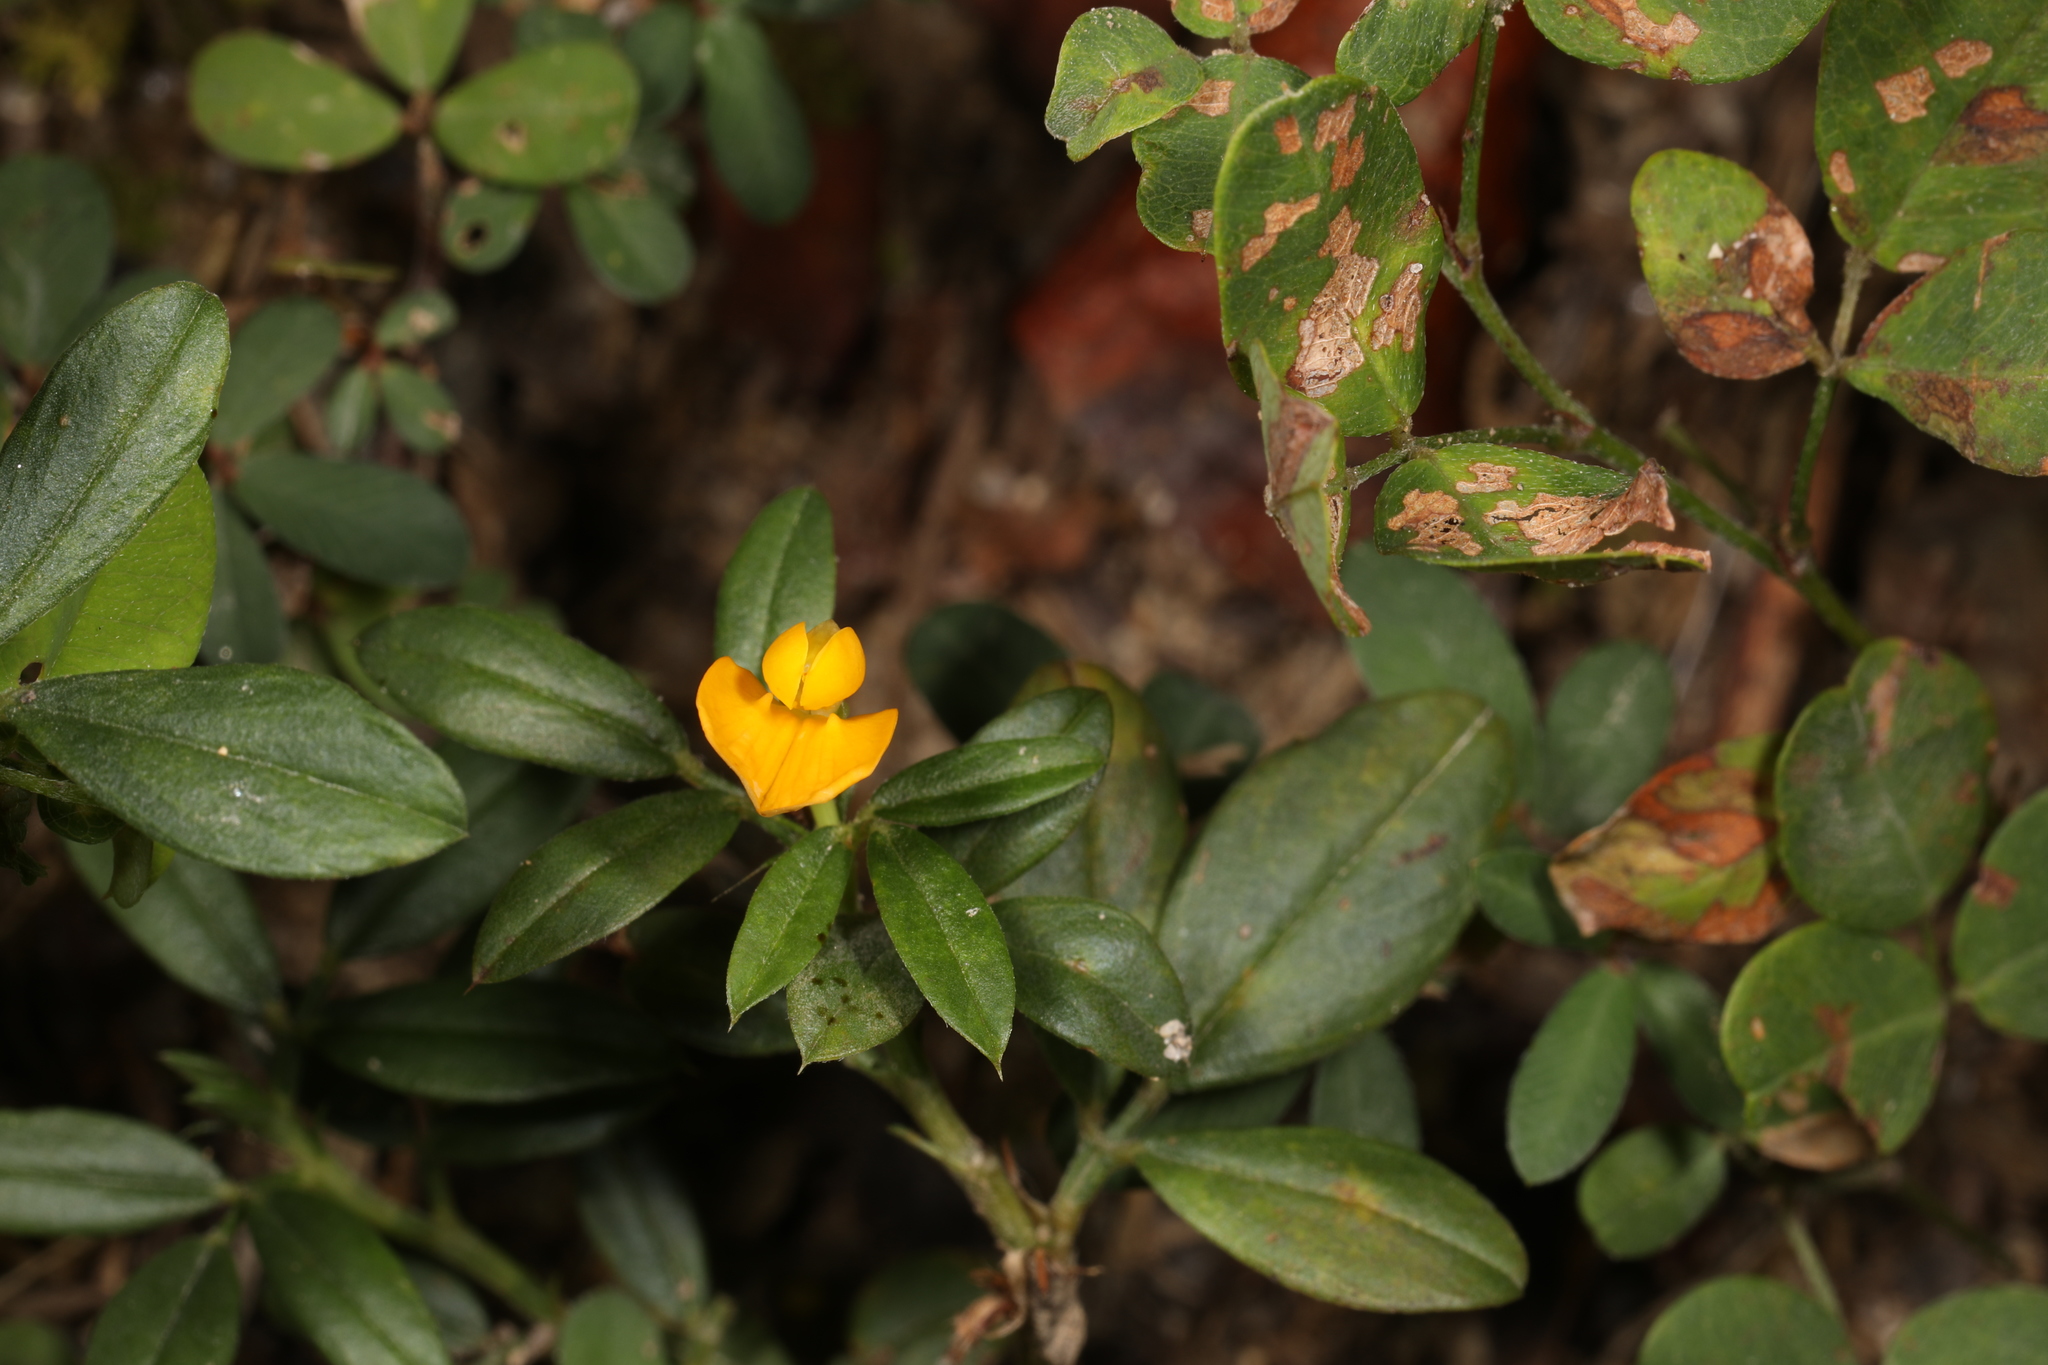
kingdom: Plantae
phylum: Tracheophyta
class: Magnoliopsida
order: Fabales
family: Fabaceae
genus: Stylosanthes
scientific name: Stylosanthes biflora
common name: Two-flower pencil-flower
